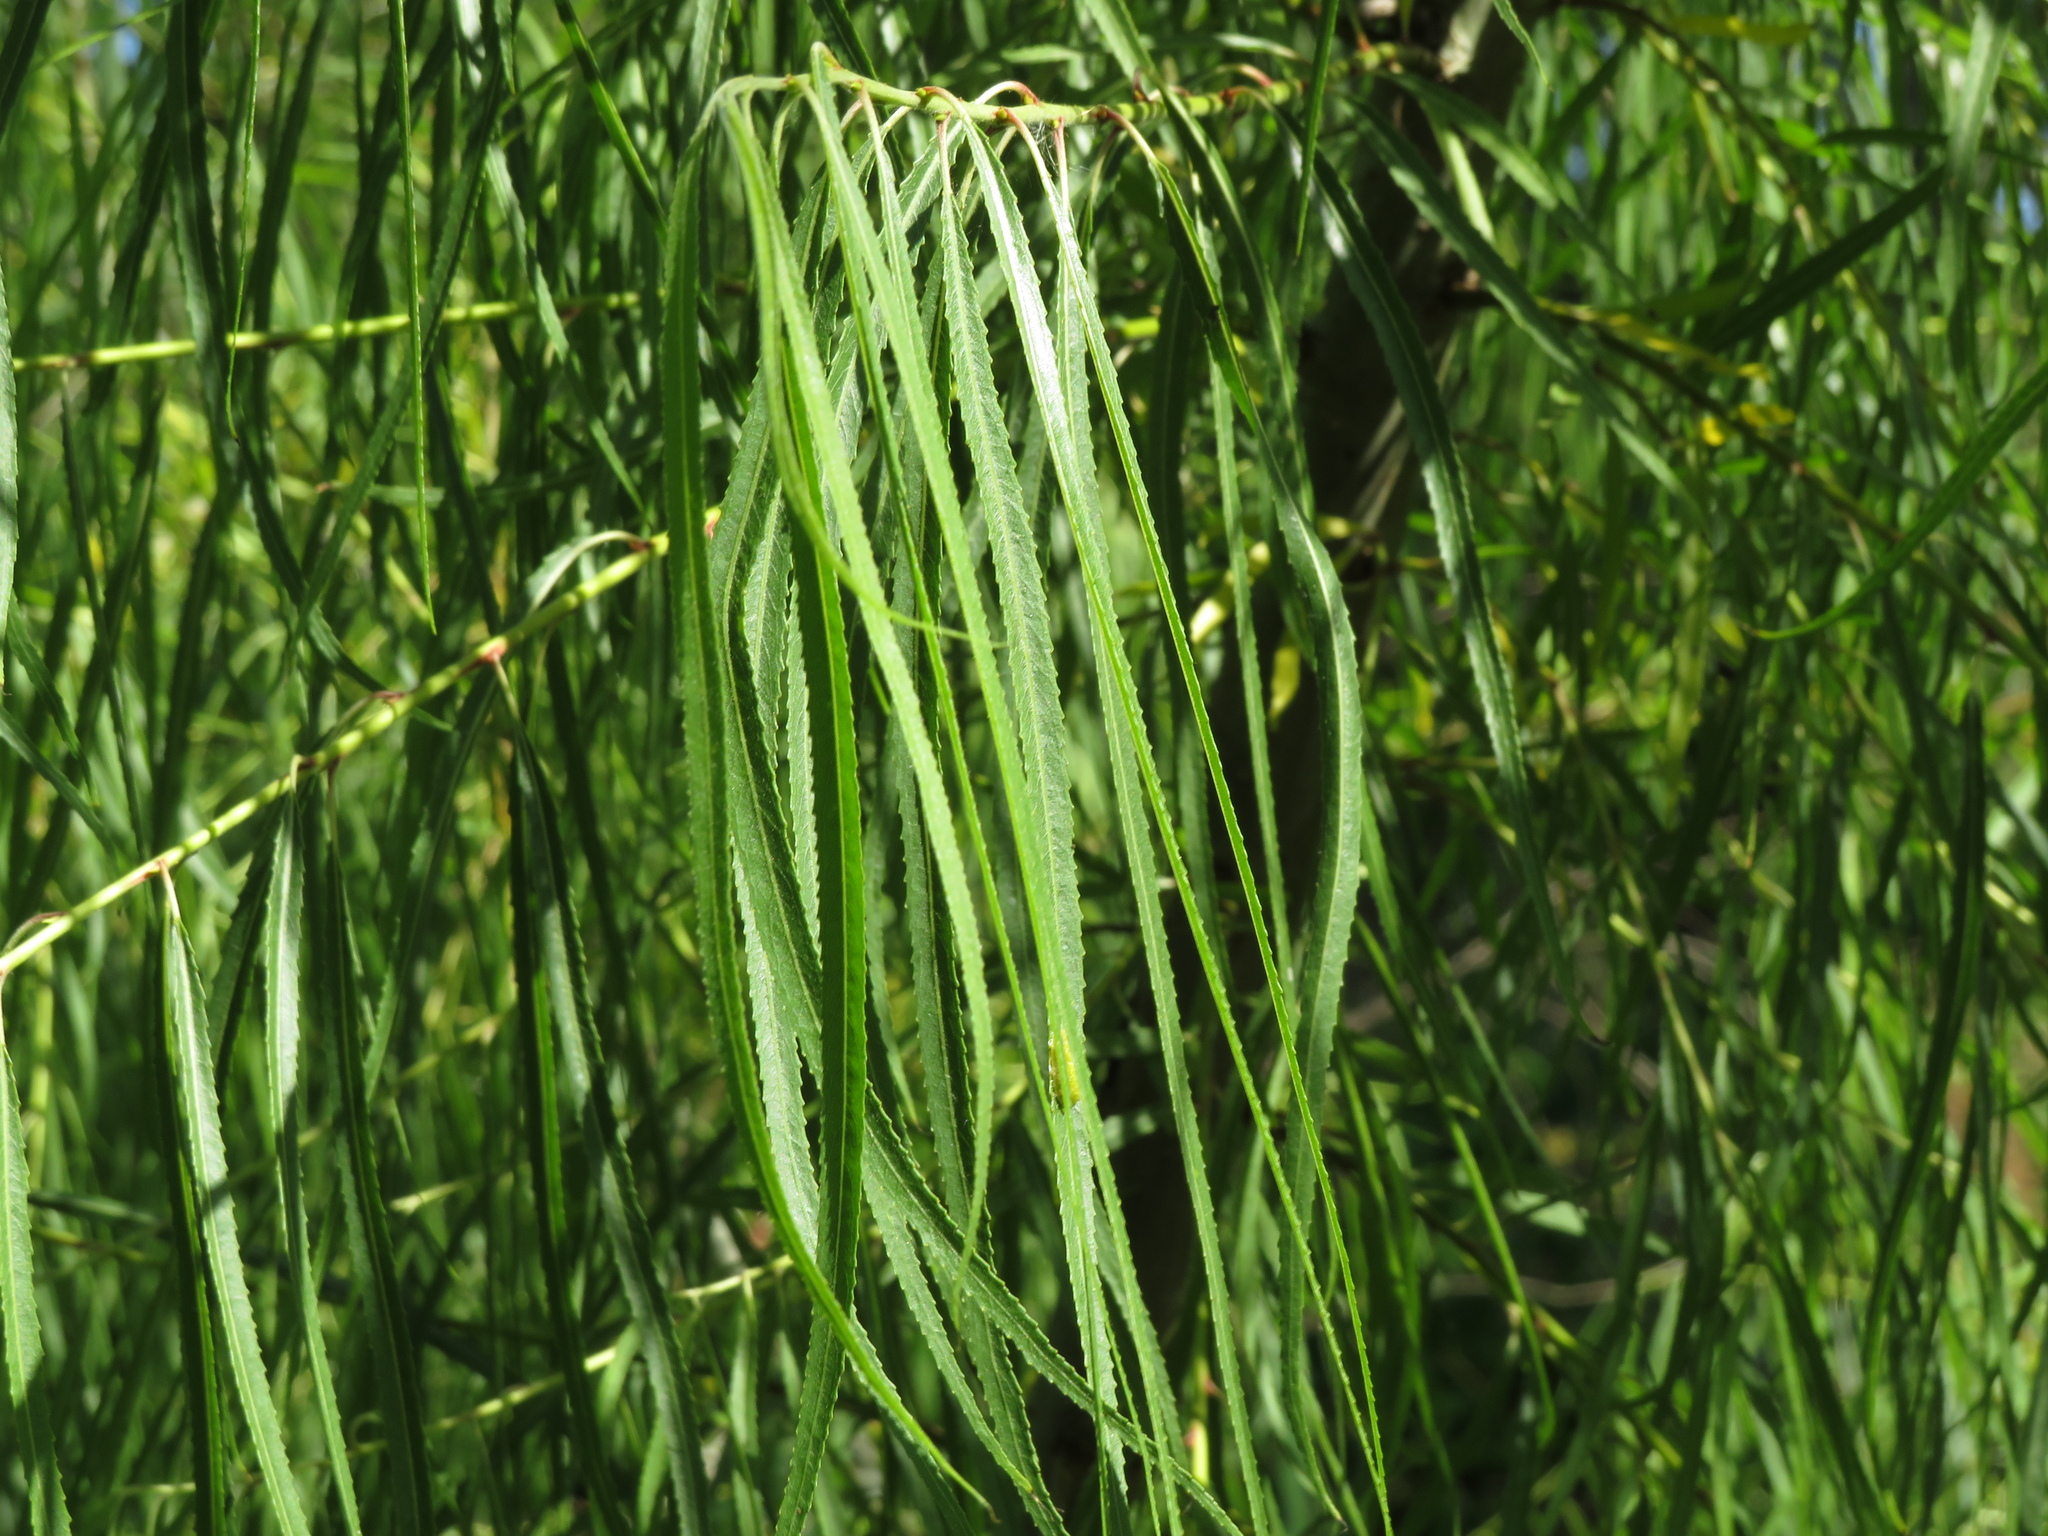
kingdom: Plantae
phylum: Tracheophyta
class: Magnoliopsida
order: Malpighiales
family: Salicaceae
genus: Salix
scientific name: Salix humboldtiana
